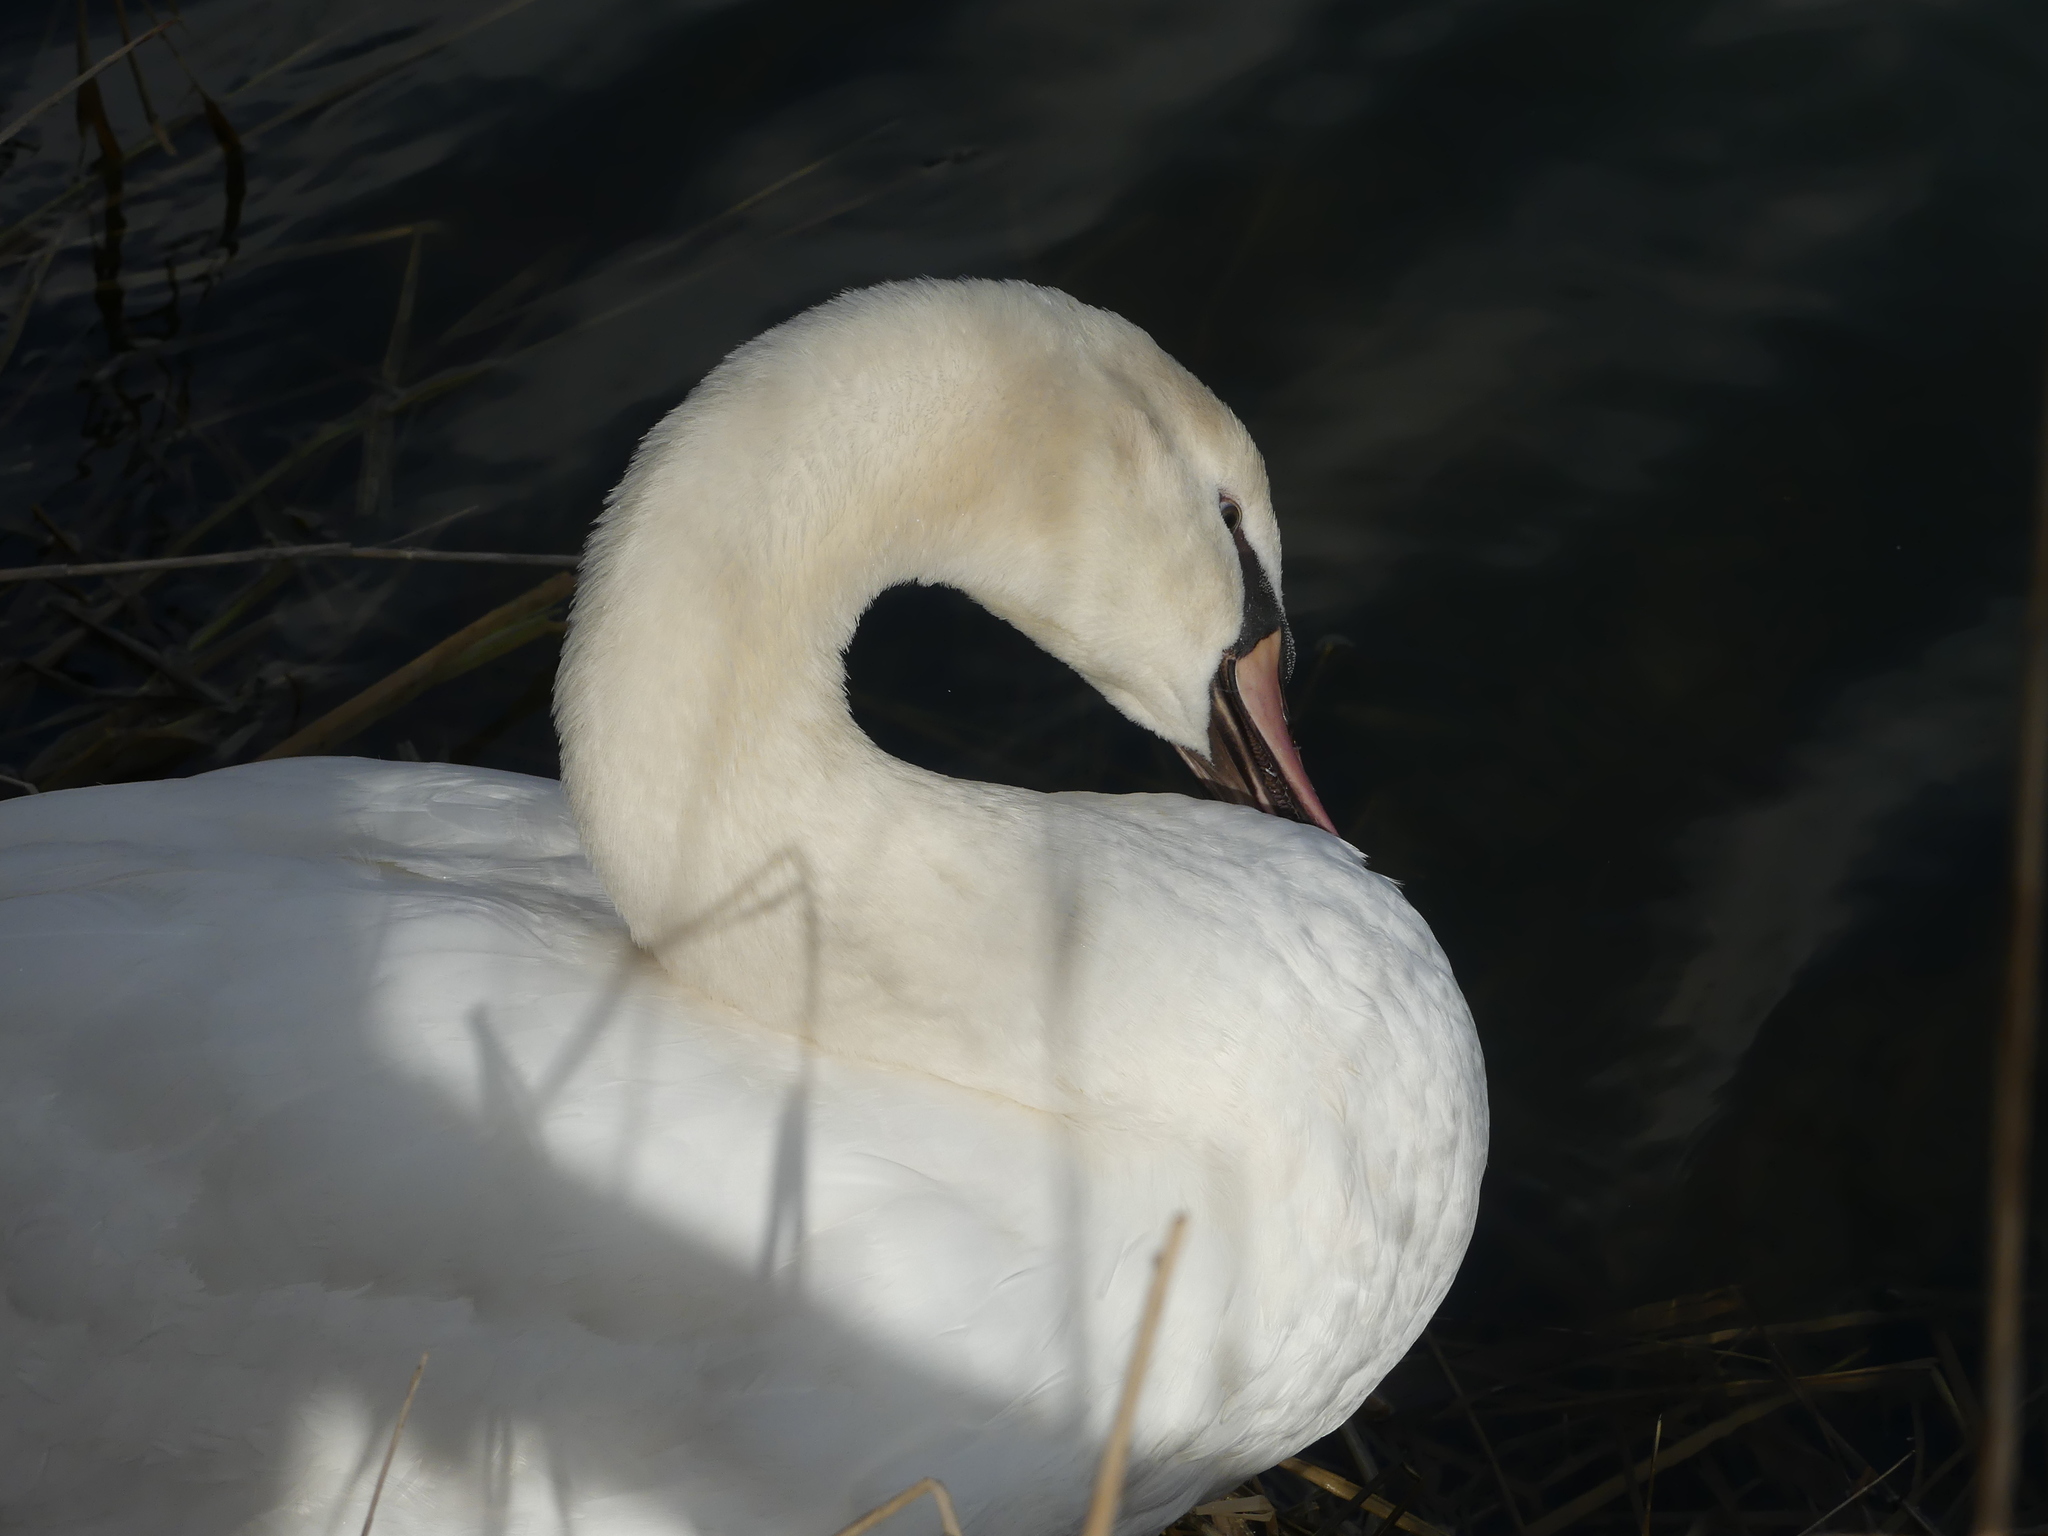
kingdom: Animalia
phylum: Chordata
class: Aves
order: Anseriformes
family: Anatidae
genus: Cygnus
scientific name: Cygnus olor
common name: Mute swan
